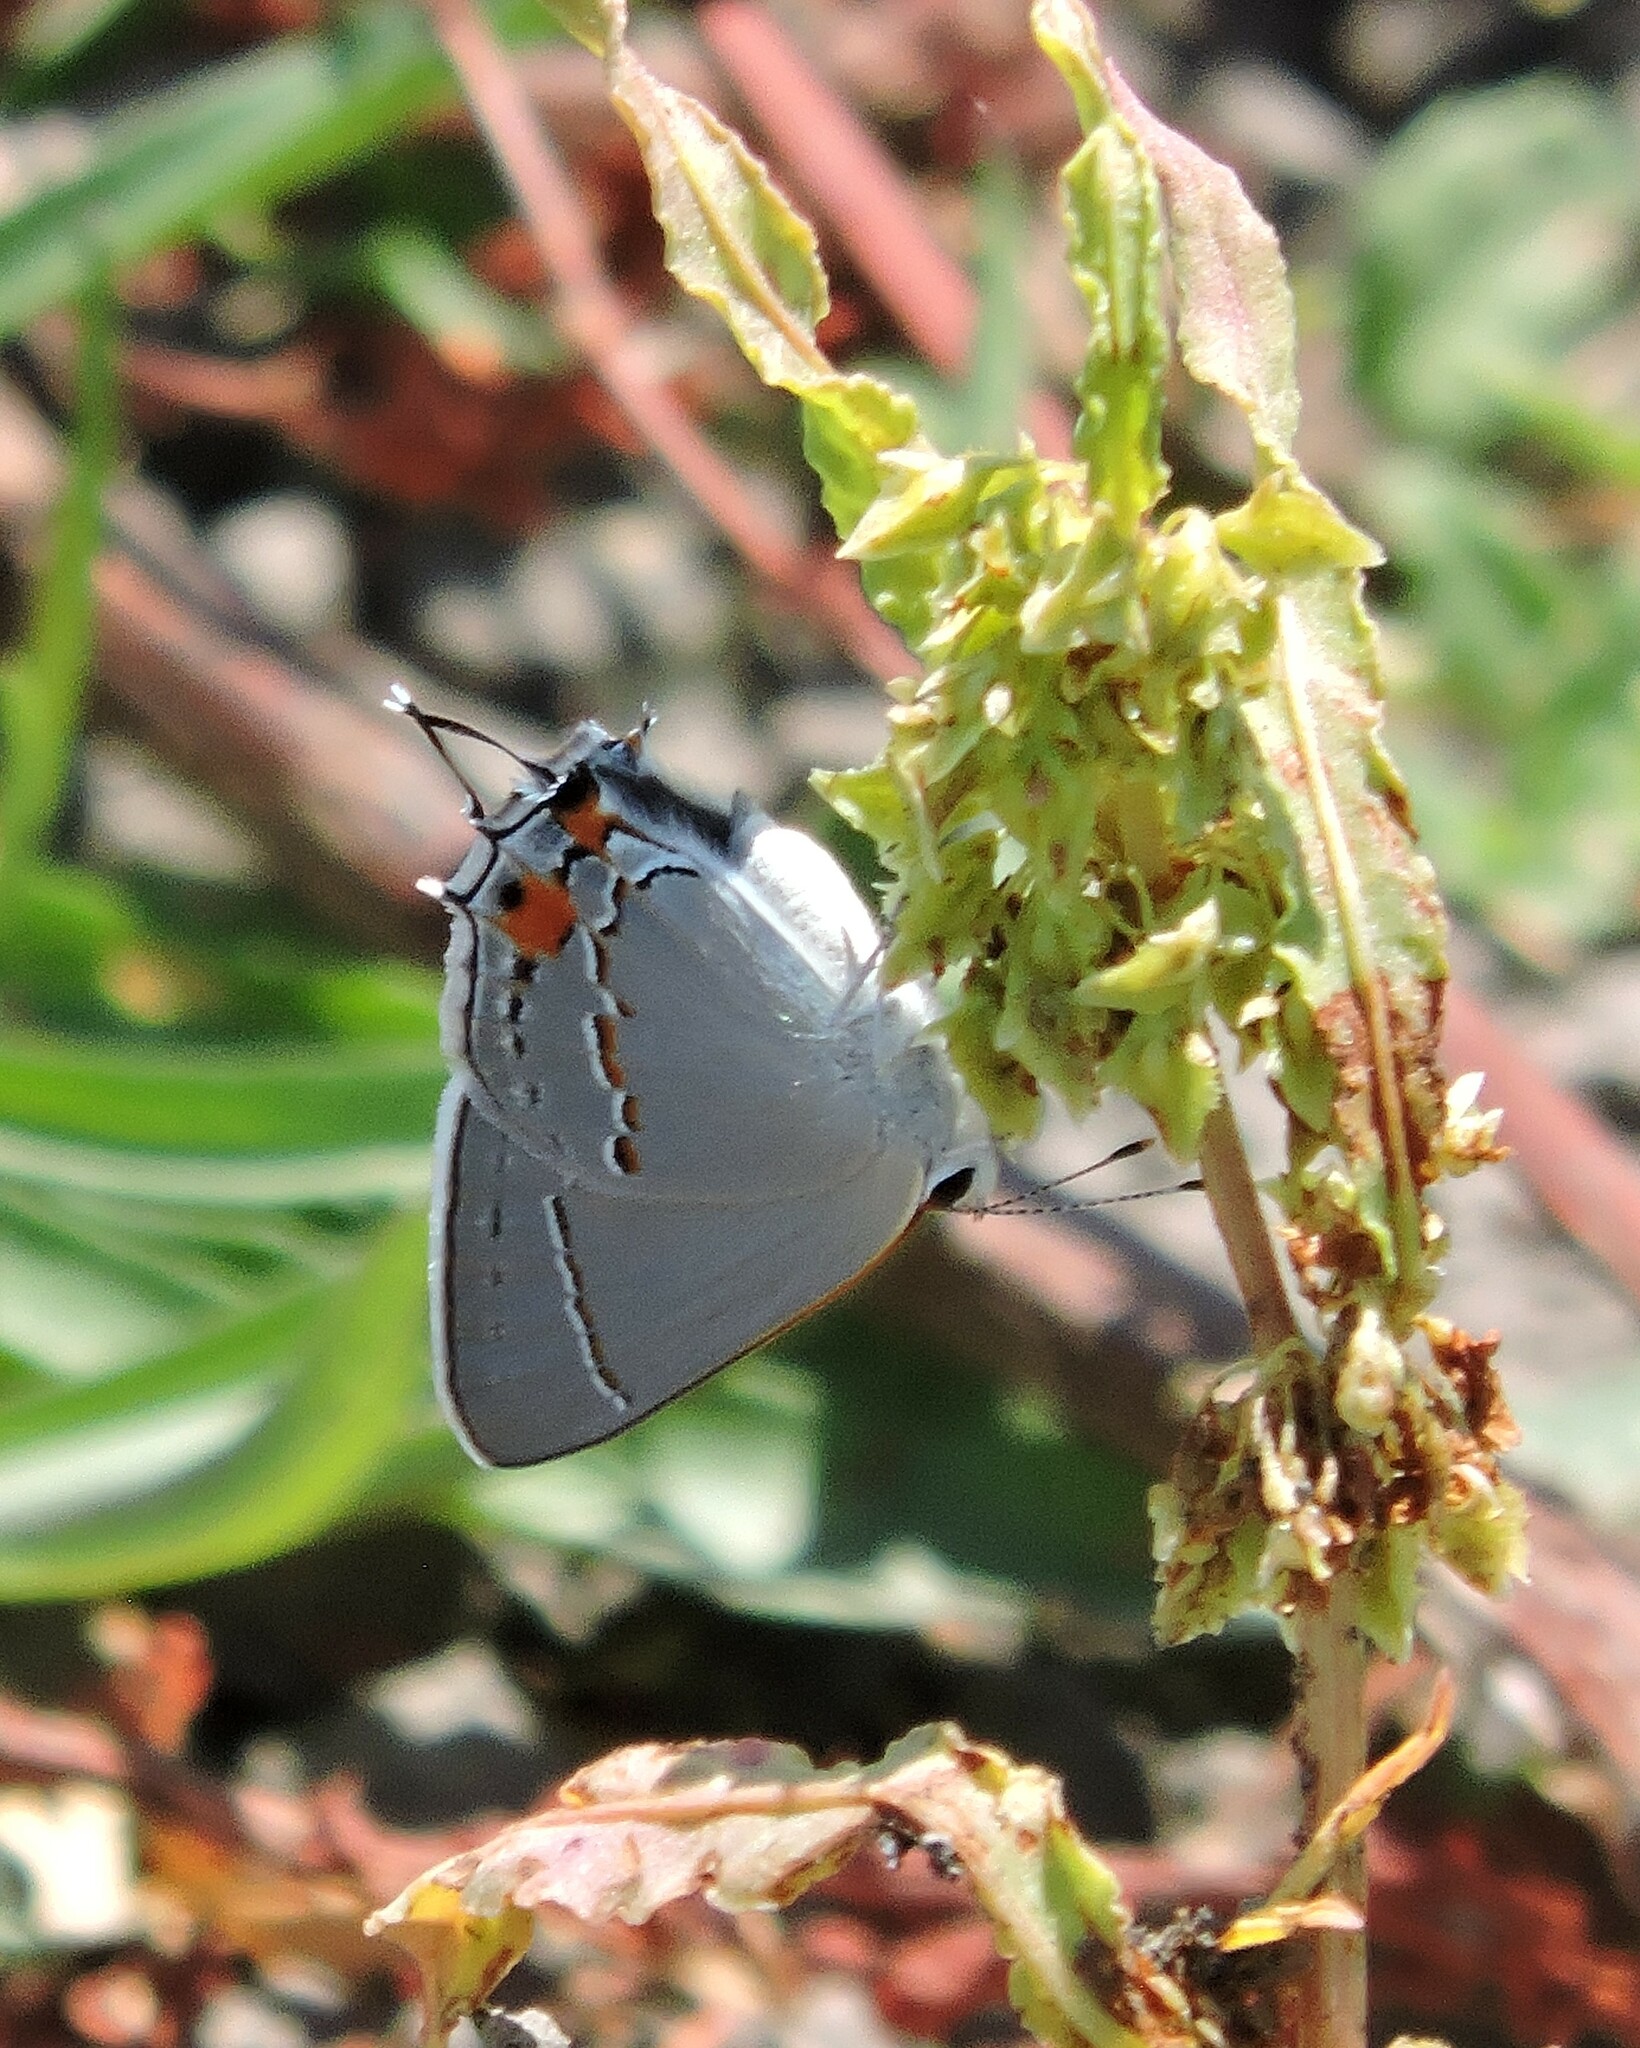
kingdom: Animalia
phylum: Arthropoda
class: Insecta
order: Lepidoptera
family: Lycaenidae
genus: Strymon
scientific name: Strymon melinus
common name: Gray hairstreak
